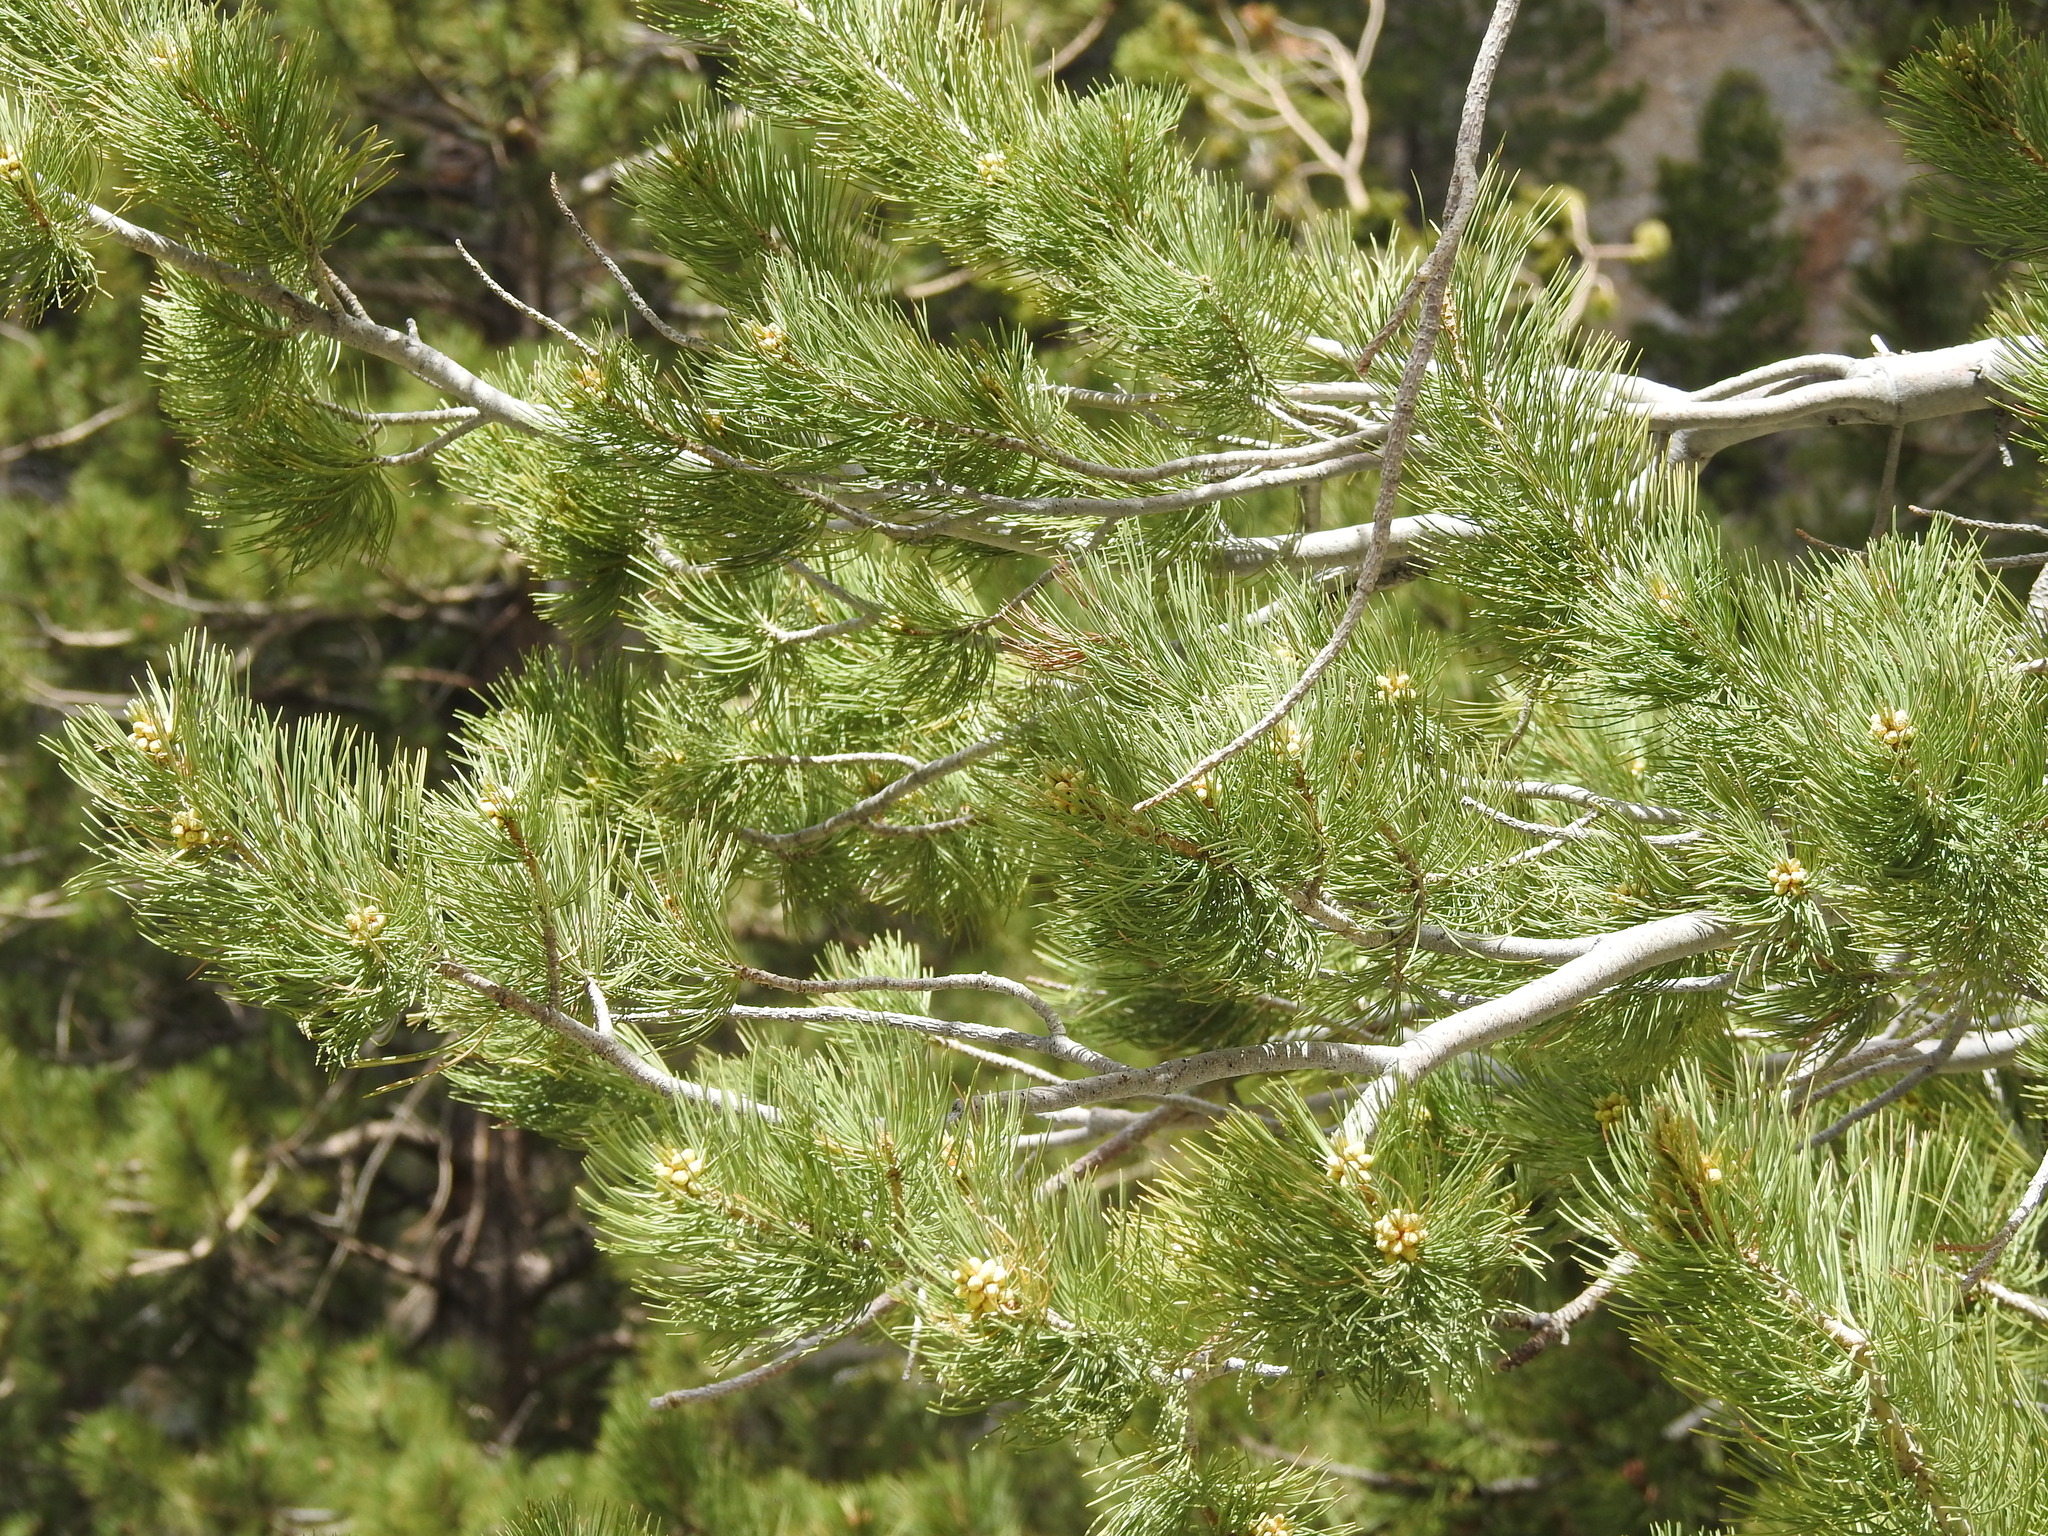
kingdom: Plantae
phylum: Tracheophyta
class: Pinopsida
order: Pinales
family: Pinaceae
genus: Pinus
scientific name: Pinus flexilis
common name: Limber pine
